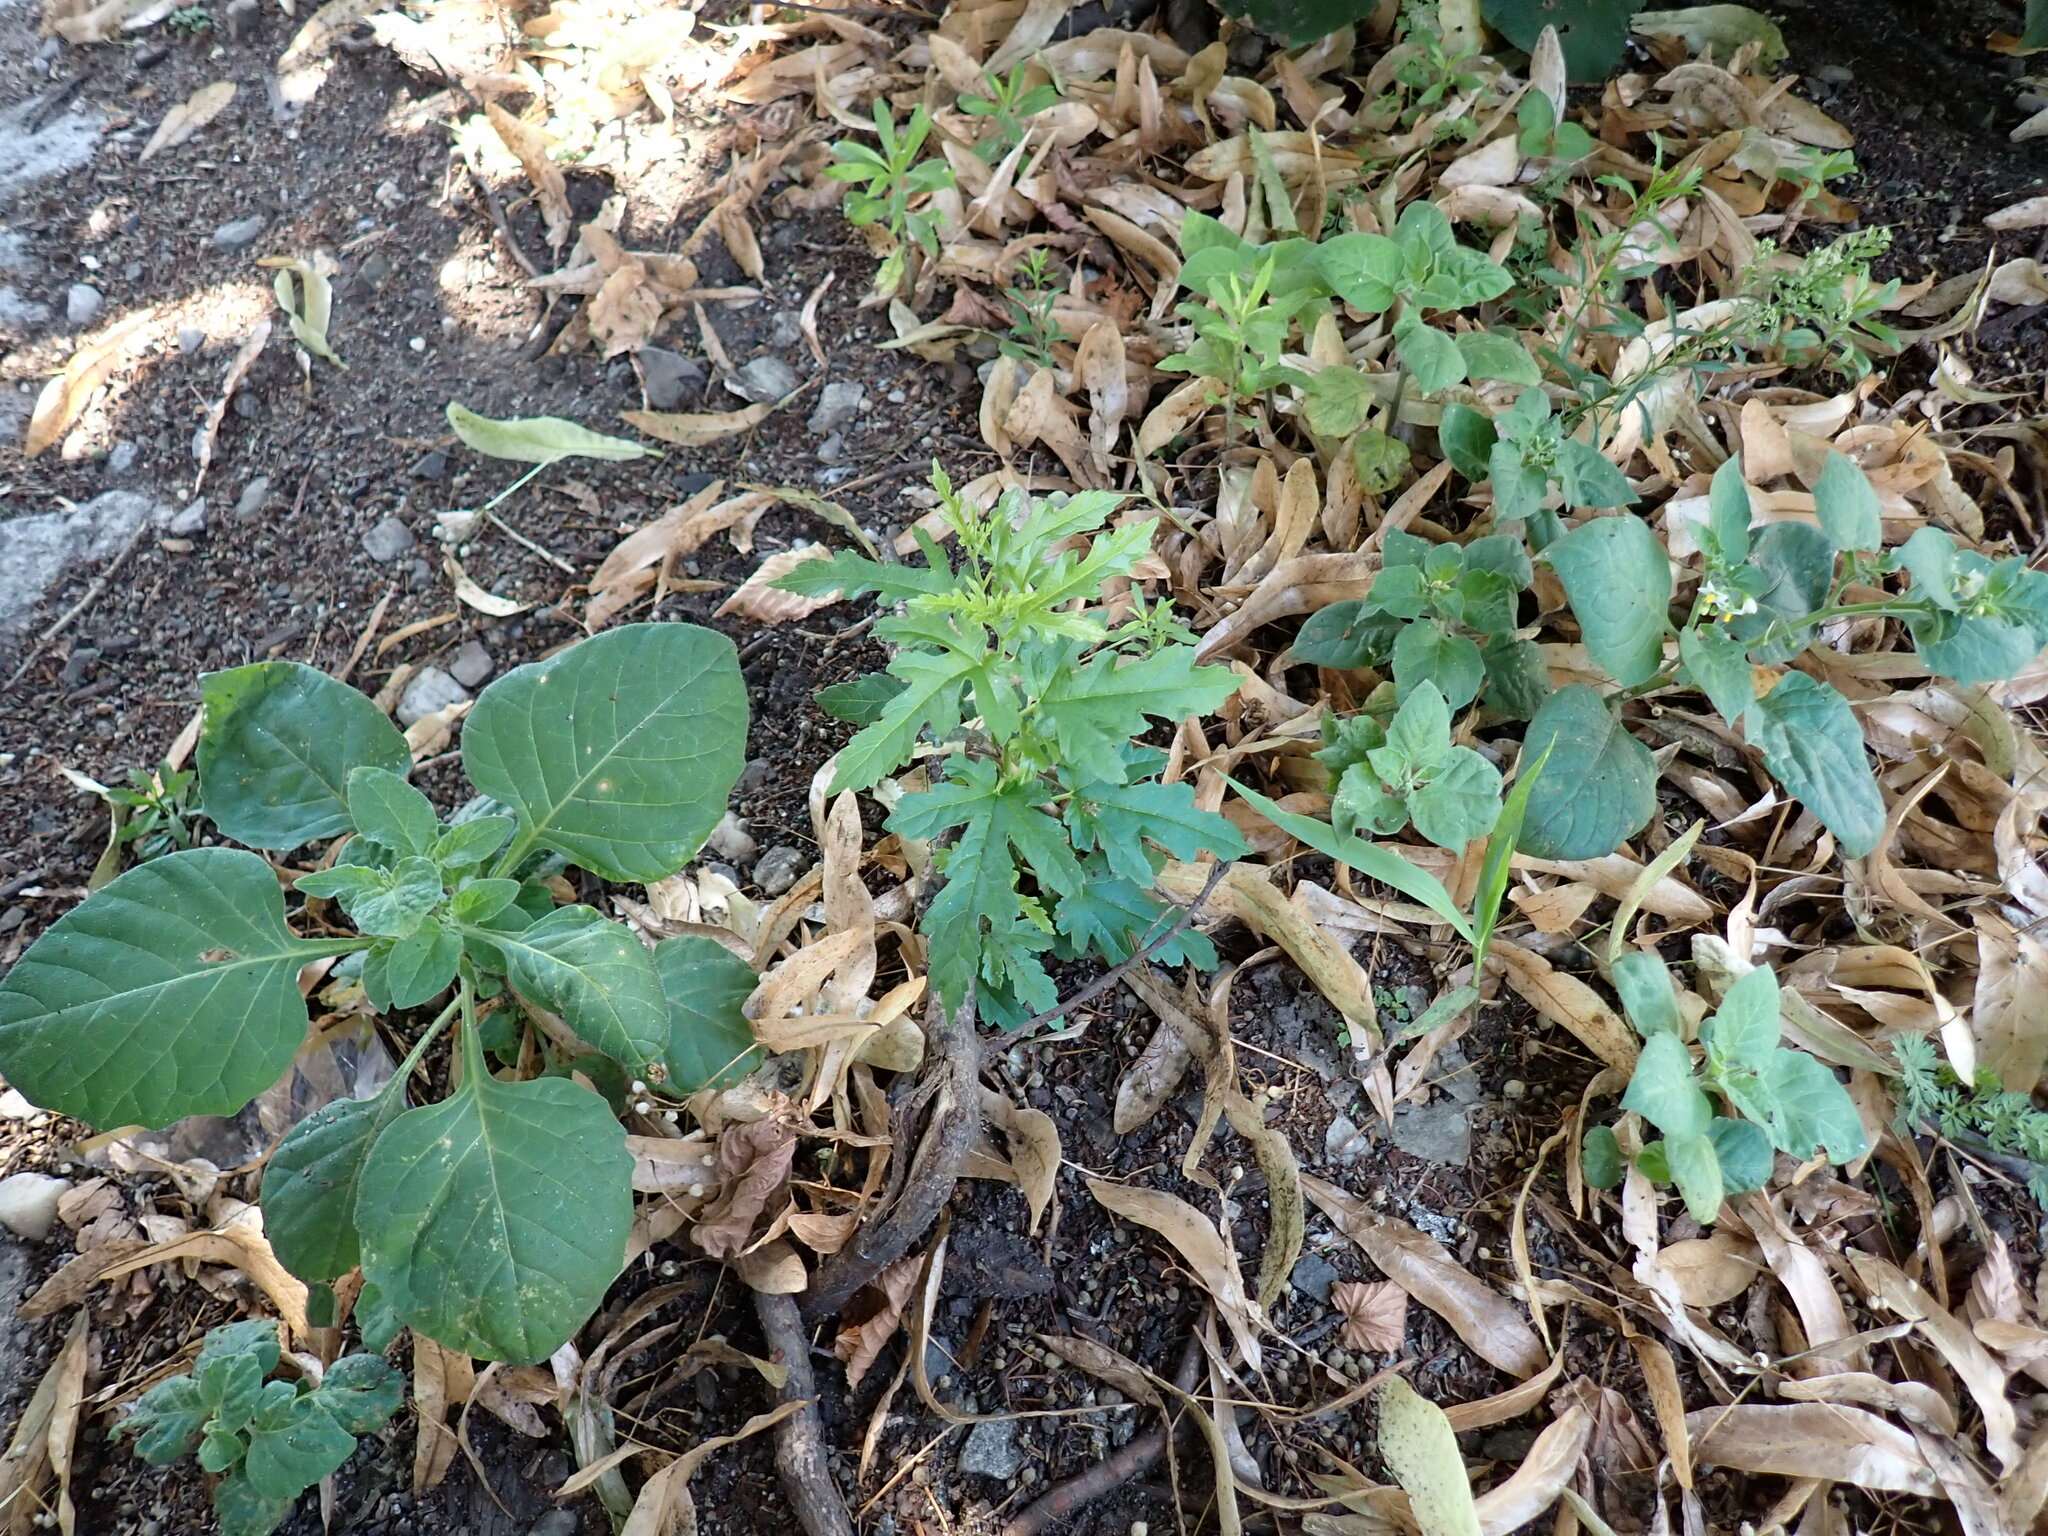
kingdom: Plantae
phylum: Tracheophyta
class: Magnoliopsida
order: Rosales
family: Moraceae
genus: Morus
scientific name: Morus indica
